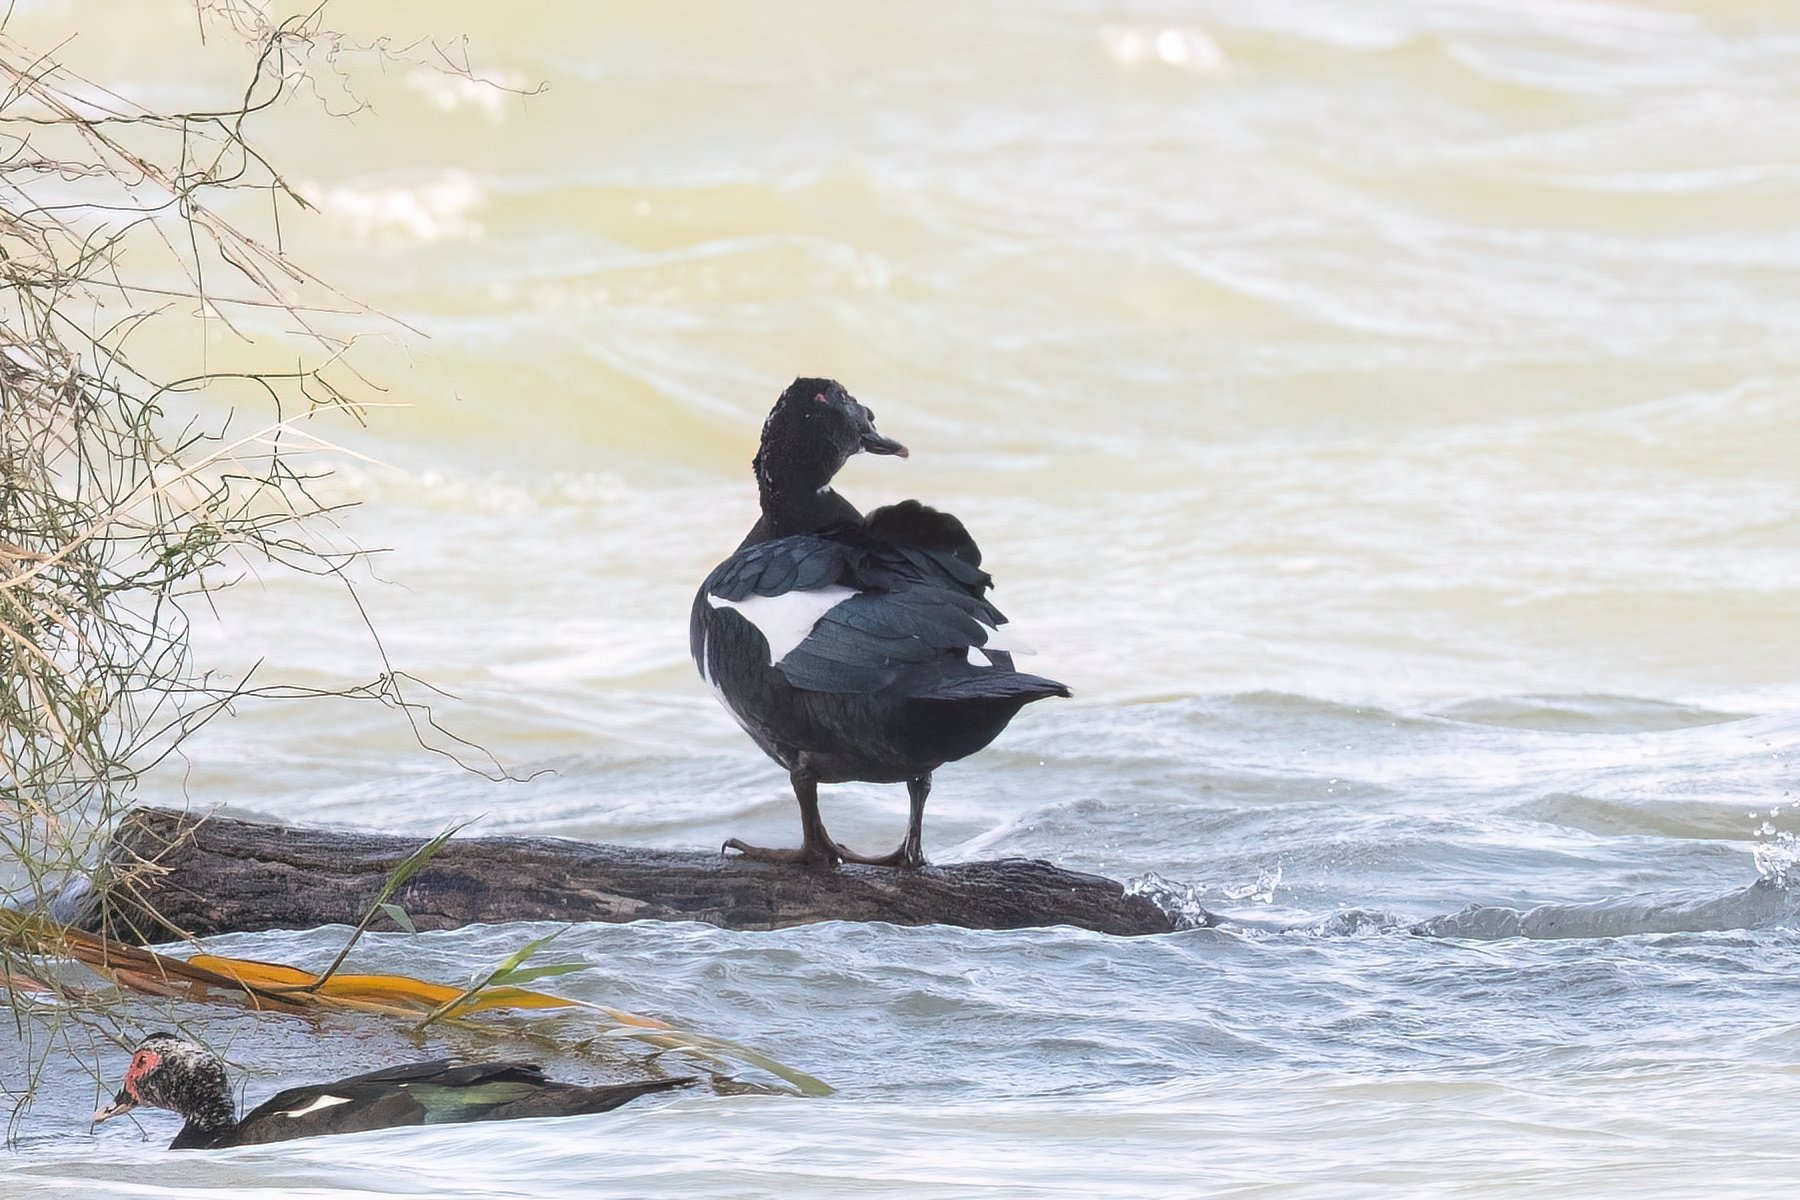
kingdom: Animalia
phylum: Chordata
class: Aves
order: Anseriformes
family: Anatidae
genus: Cairina
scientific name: Cairina moschata
